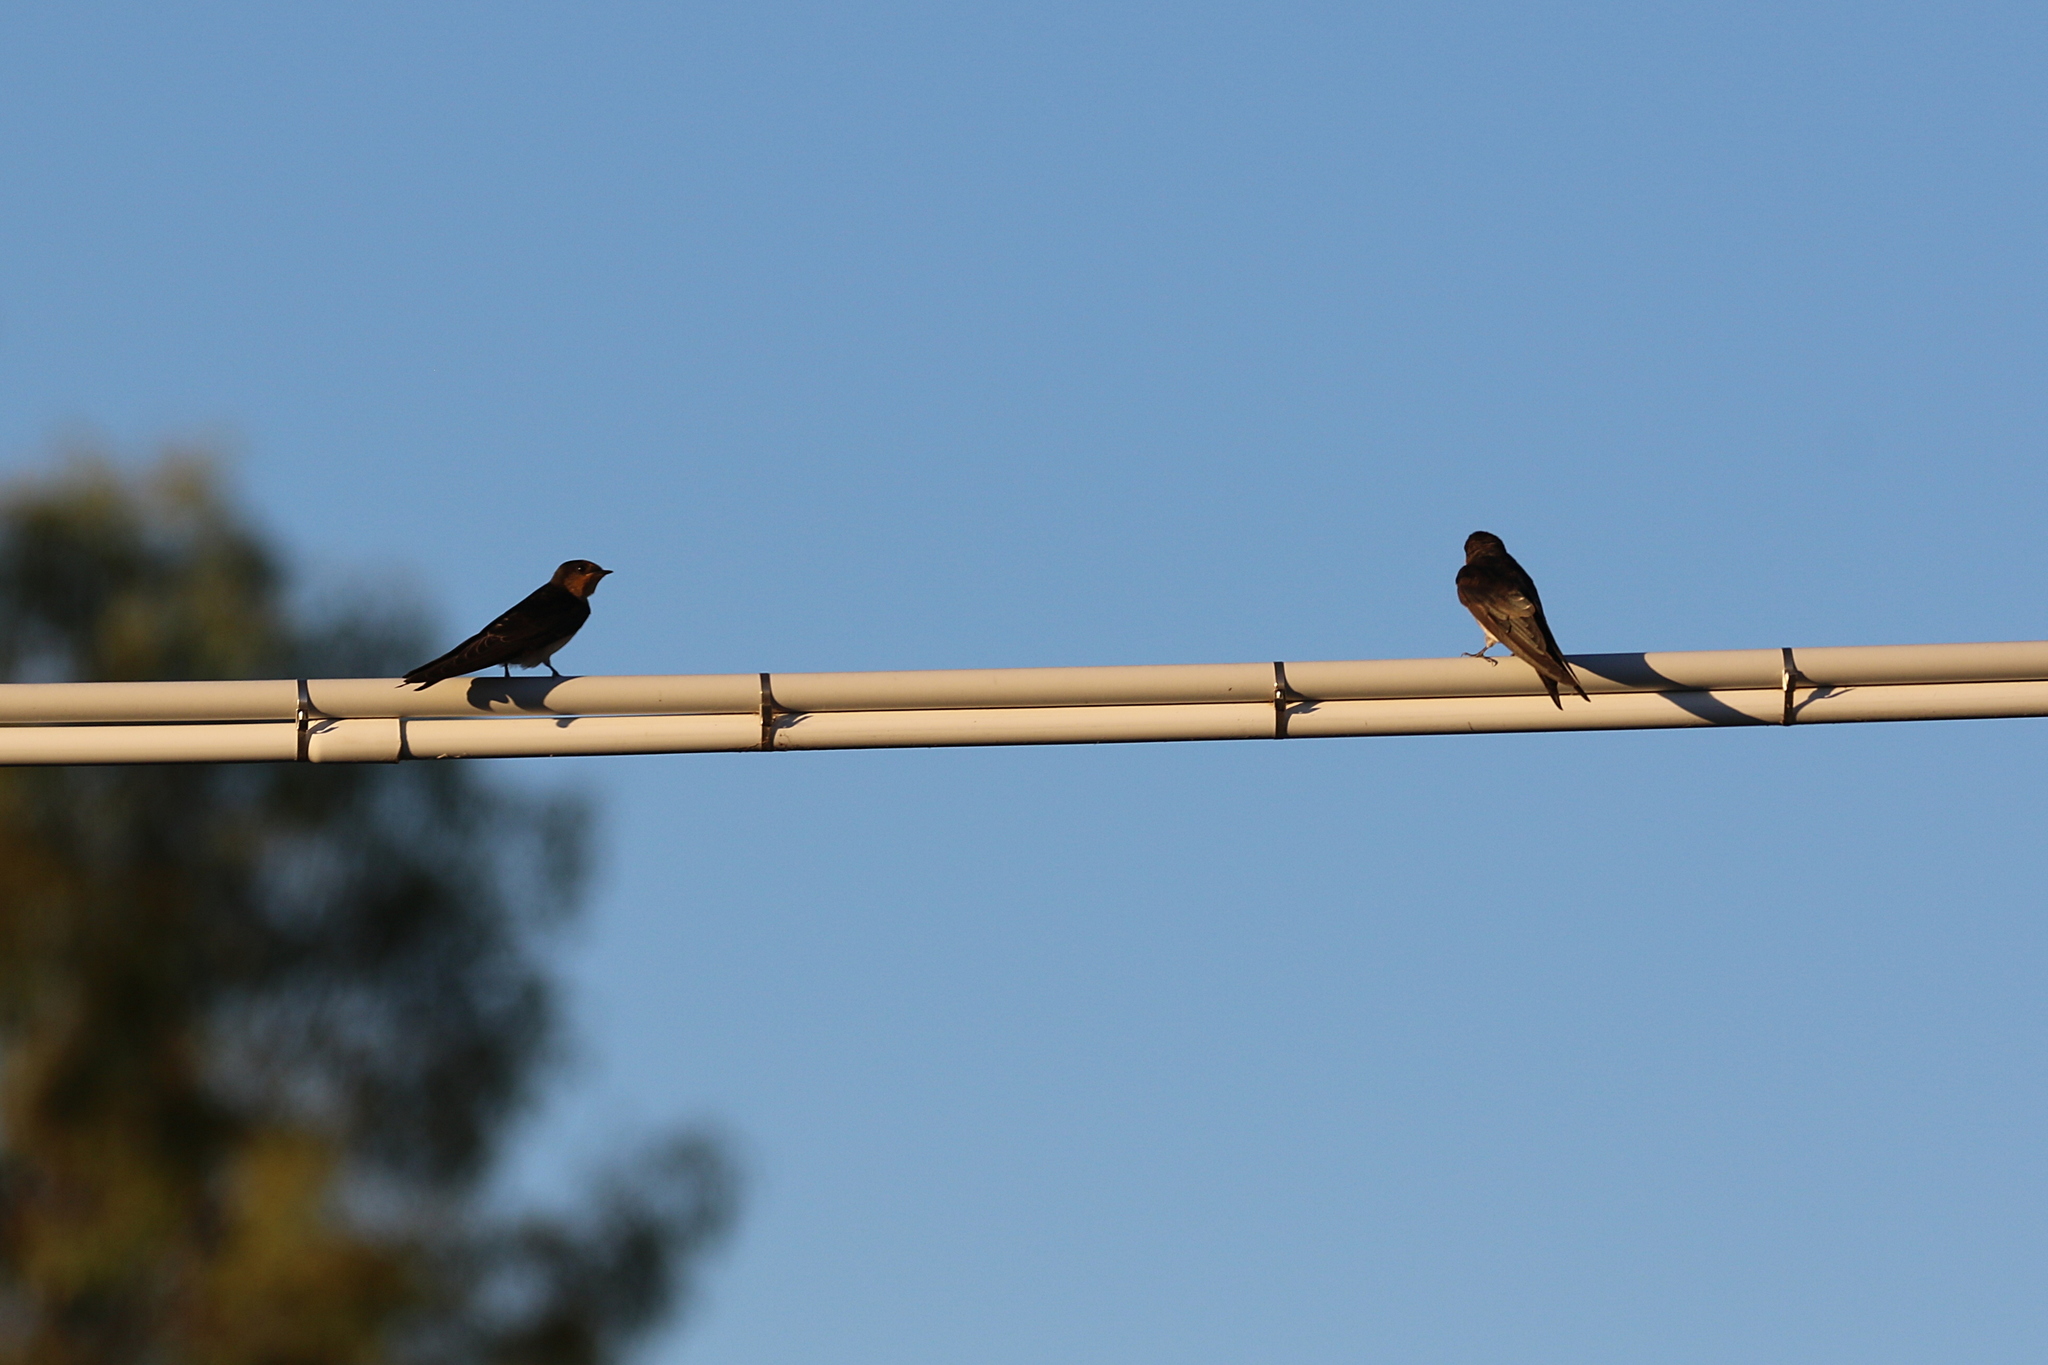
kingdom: Animalia
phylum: Chordata
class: Aves
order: Passeriformes
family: Hirundinidae
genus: Hirundo
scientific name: Hirundo neoxena
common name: Welcome swallow
